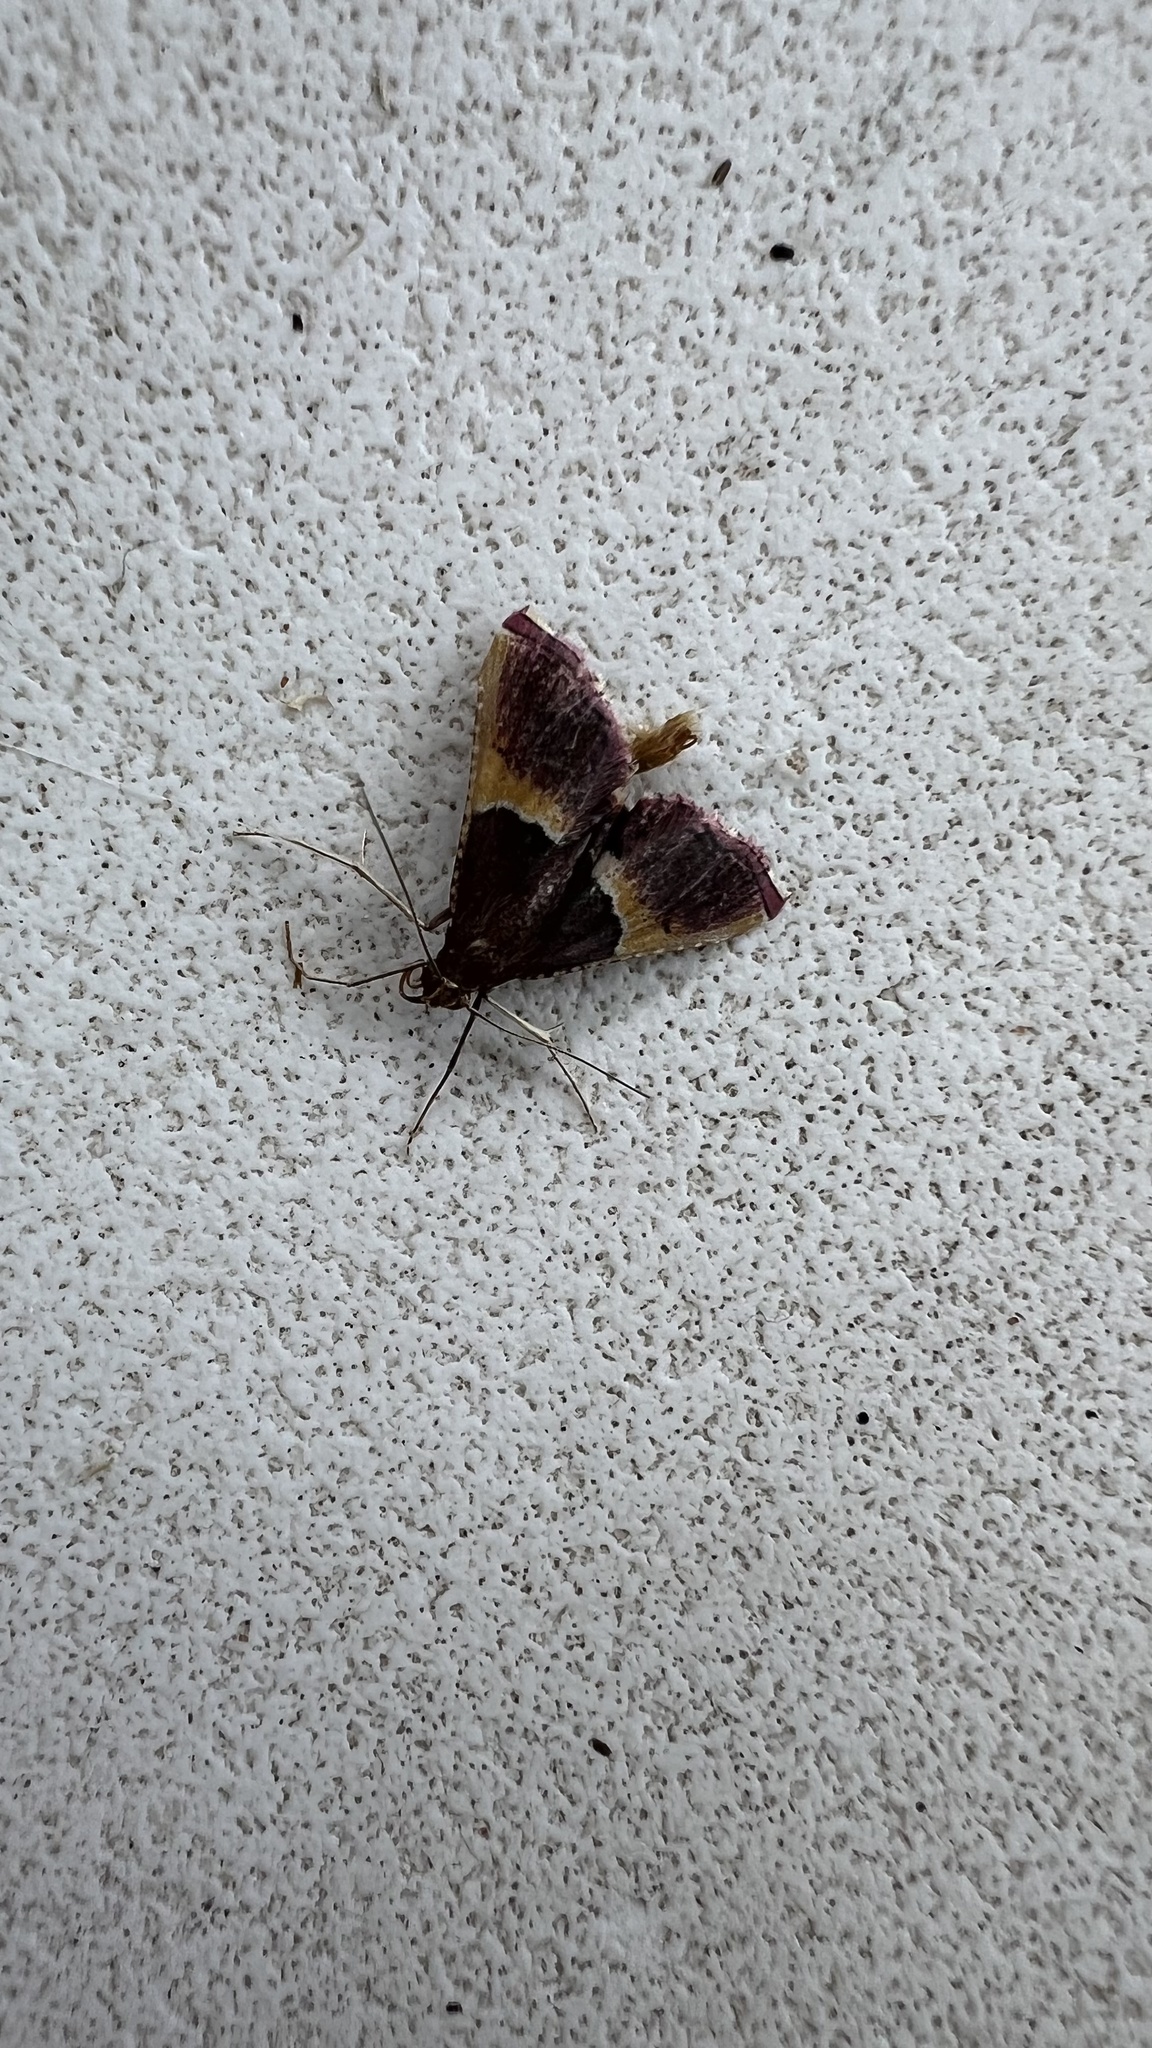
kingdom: Animalia
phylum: Arthropoda
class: Insecta
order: Lepidoptera
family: Pyralidae
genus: Endotricha
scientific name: Endotricha mesenterialis
